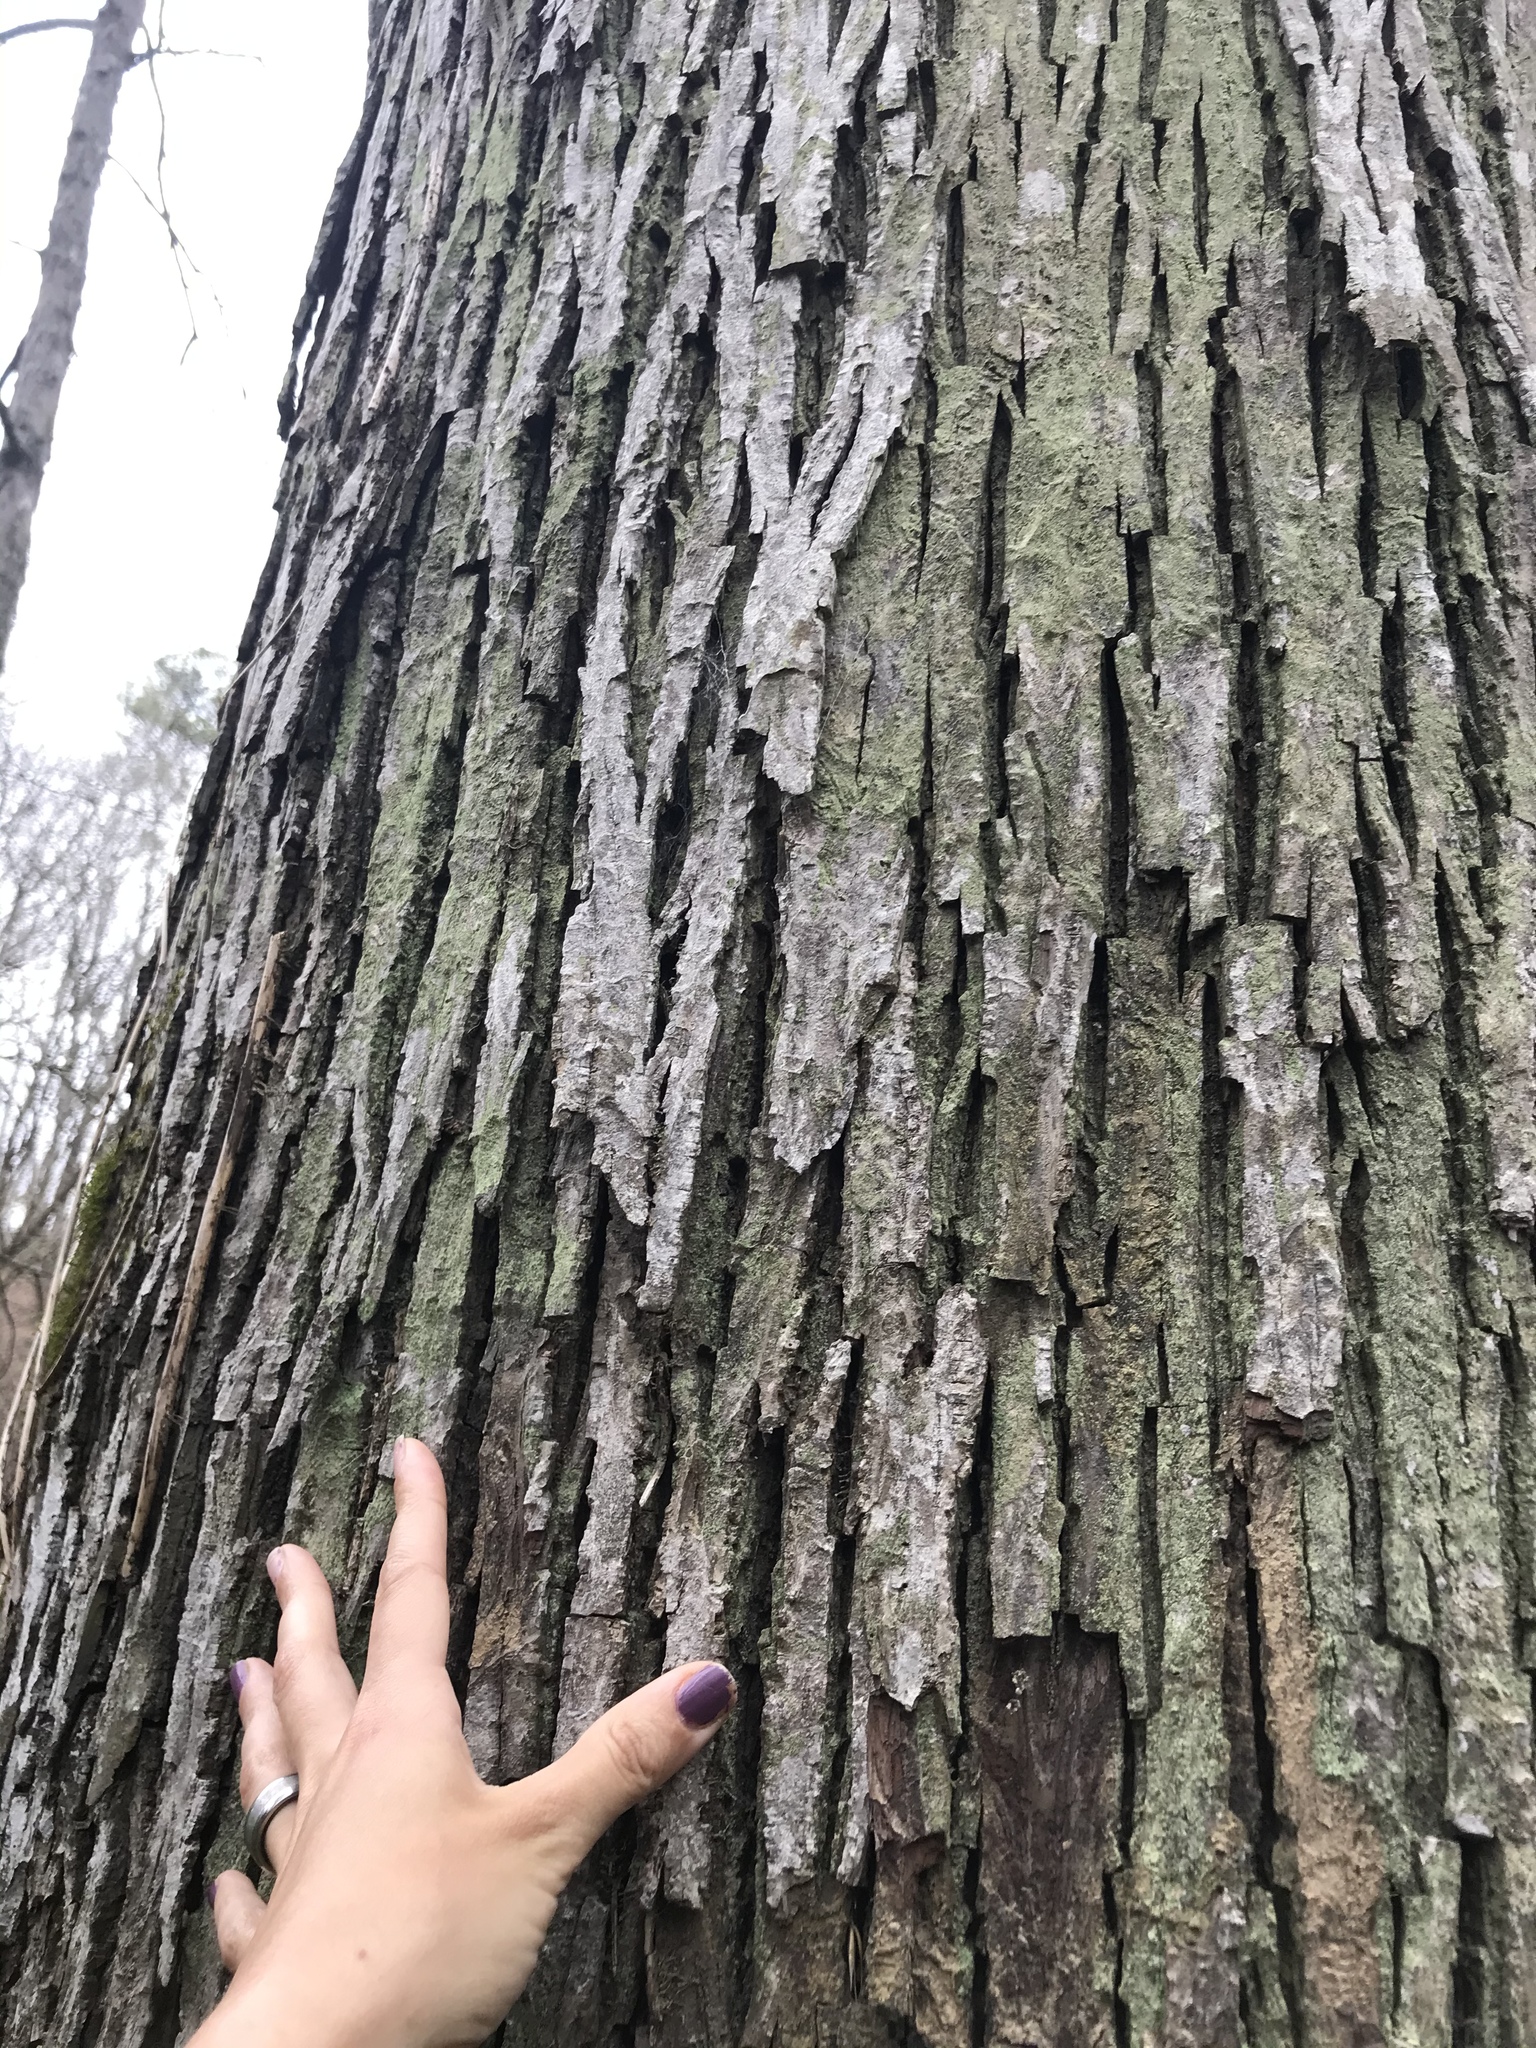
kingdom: Plantae
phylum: Tracheophyta
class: Magnoliopsida
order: Fagales
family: Juglandaceae
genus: Carya
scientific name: Carya ovata
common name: Shagbark hickory
